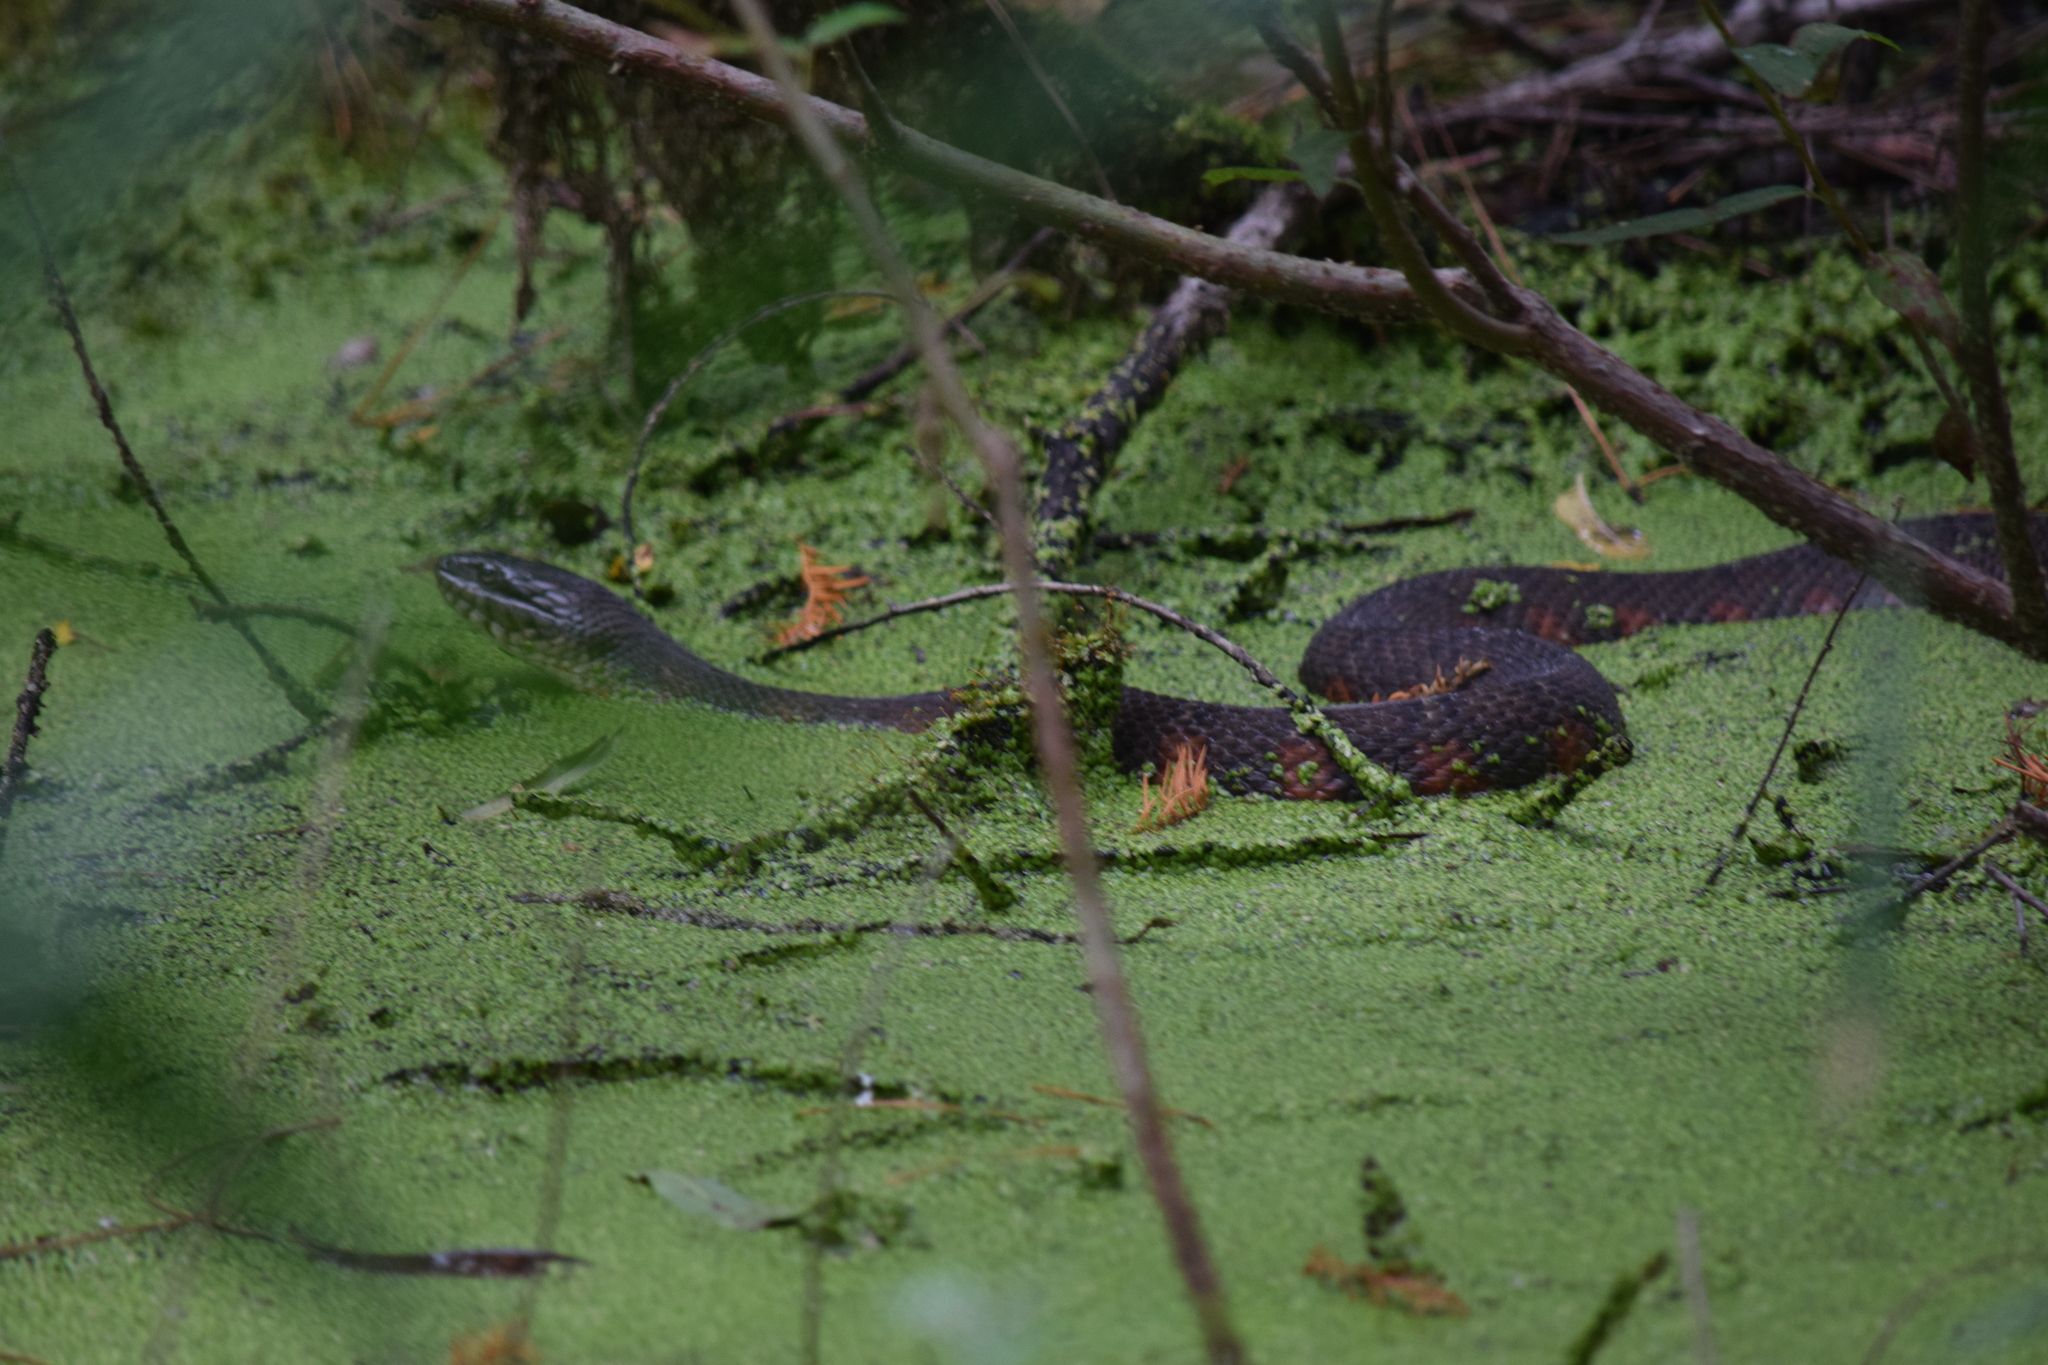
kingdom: Animalia
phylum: Chordata
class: Squamata
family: Colubridae
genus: Nerodia
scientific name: Nerodia sipedon
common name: Northern water snake
